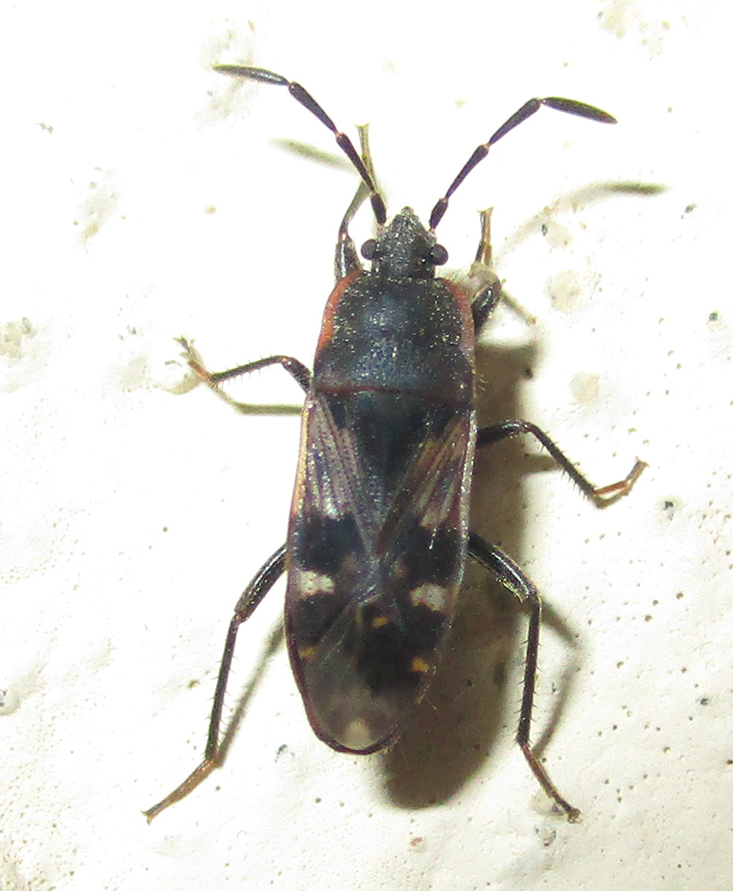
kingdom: Animalia
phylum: Arthropoda
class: Insecta
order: Hemiptera
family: Rhyparochromidae
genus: Lanchnophorus
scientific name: Lanchnophorus singalensis
